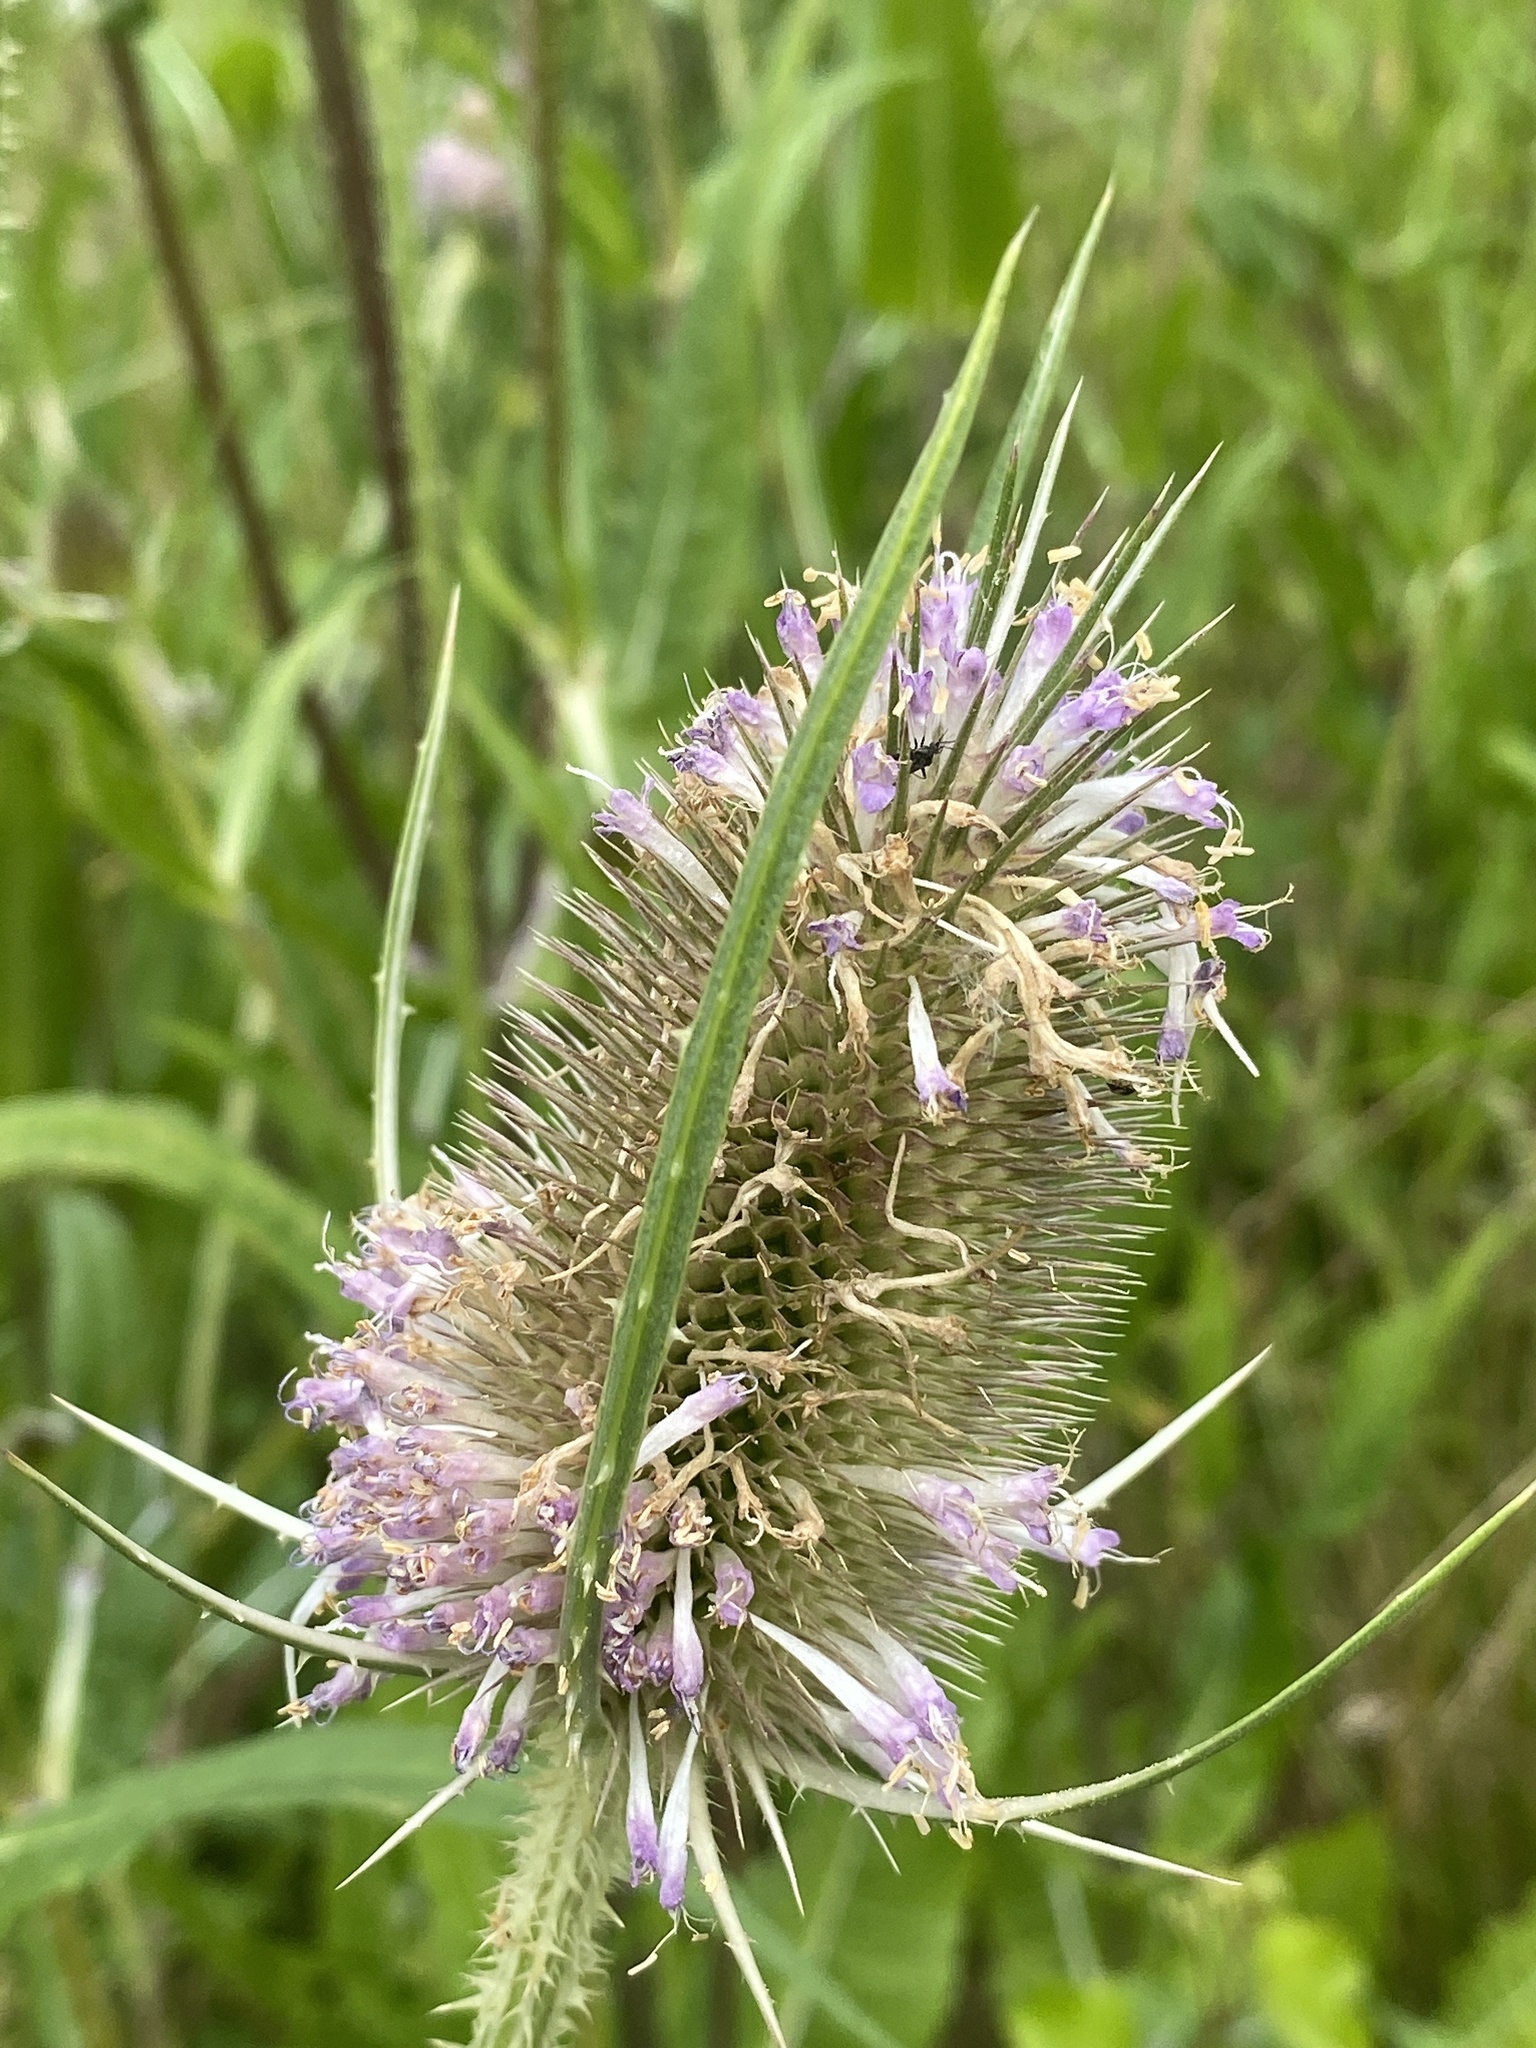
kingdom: Plantae
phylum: Tracheophyta
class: Magnoliopsida
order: Dipsacales
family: Caprifoliaceae
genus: Dipsacus
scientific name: Dipsacus fullonum
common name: Teasel
